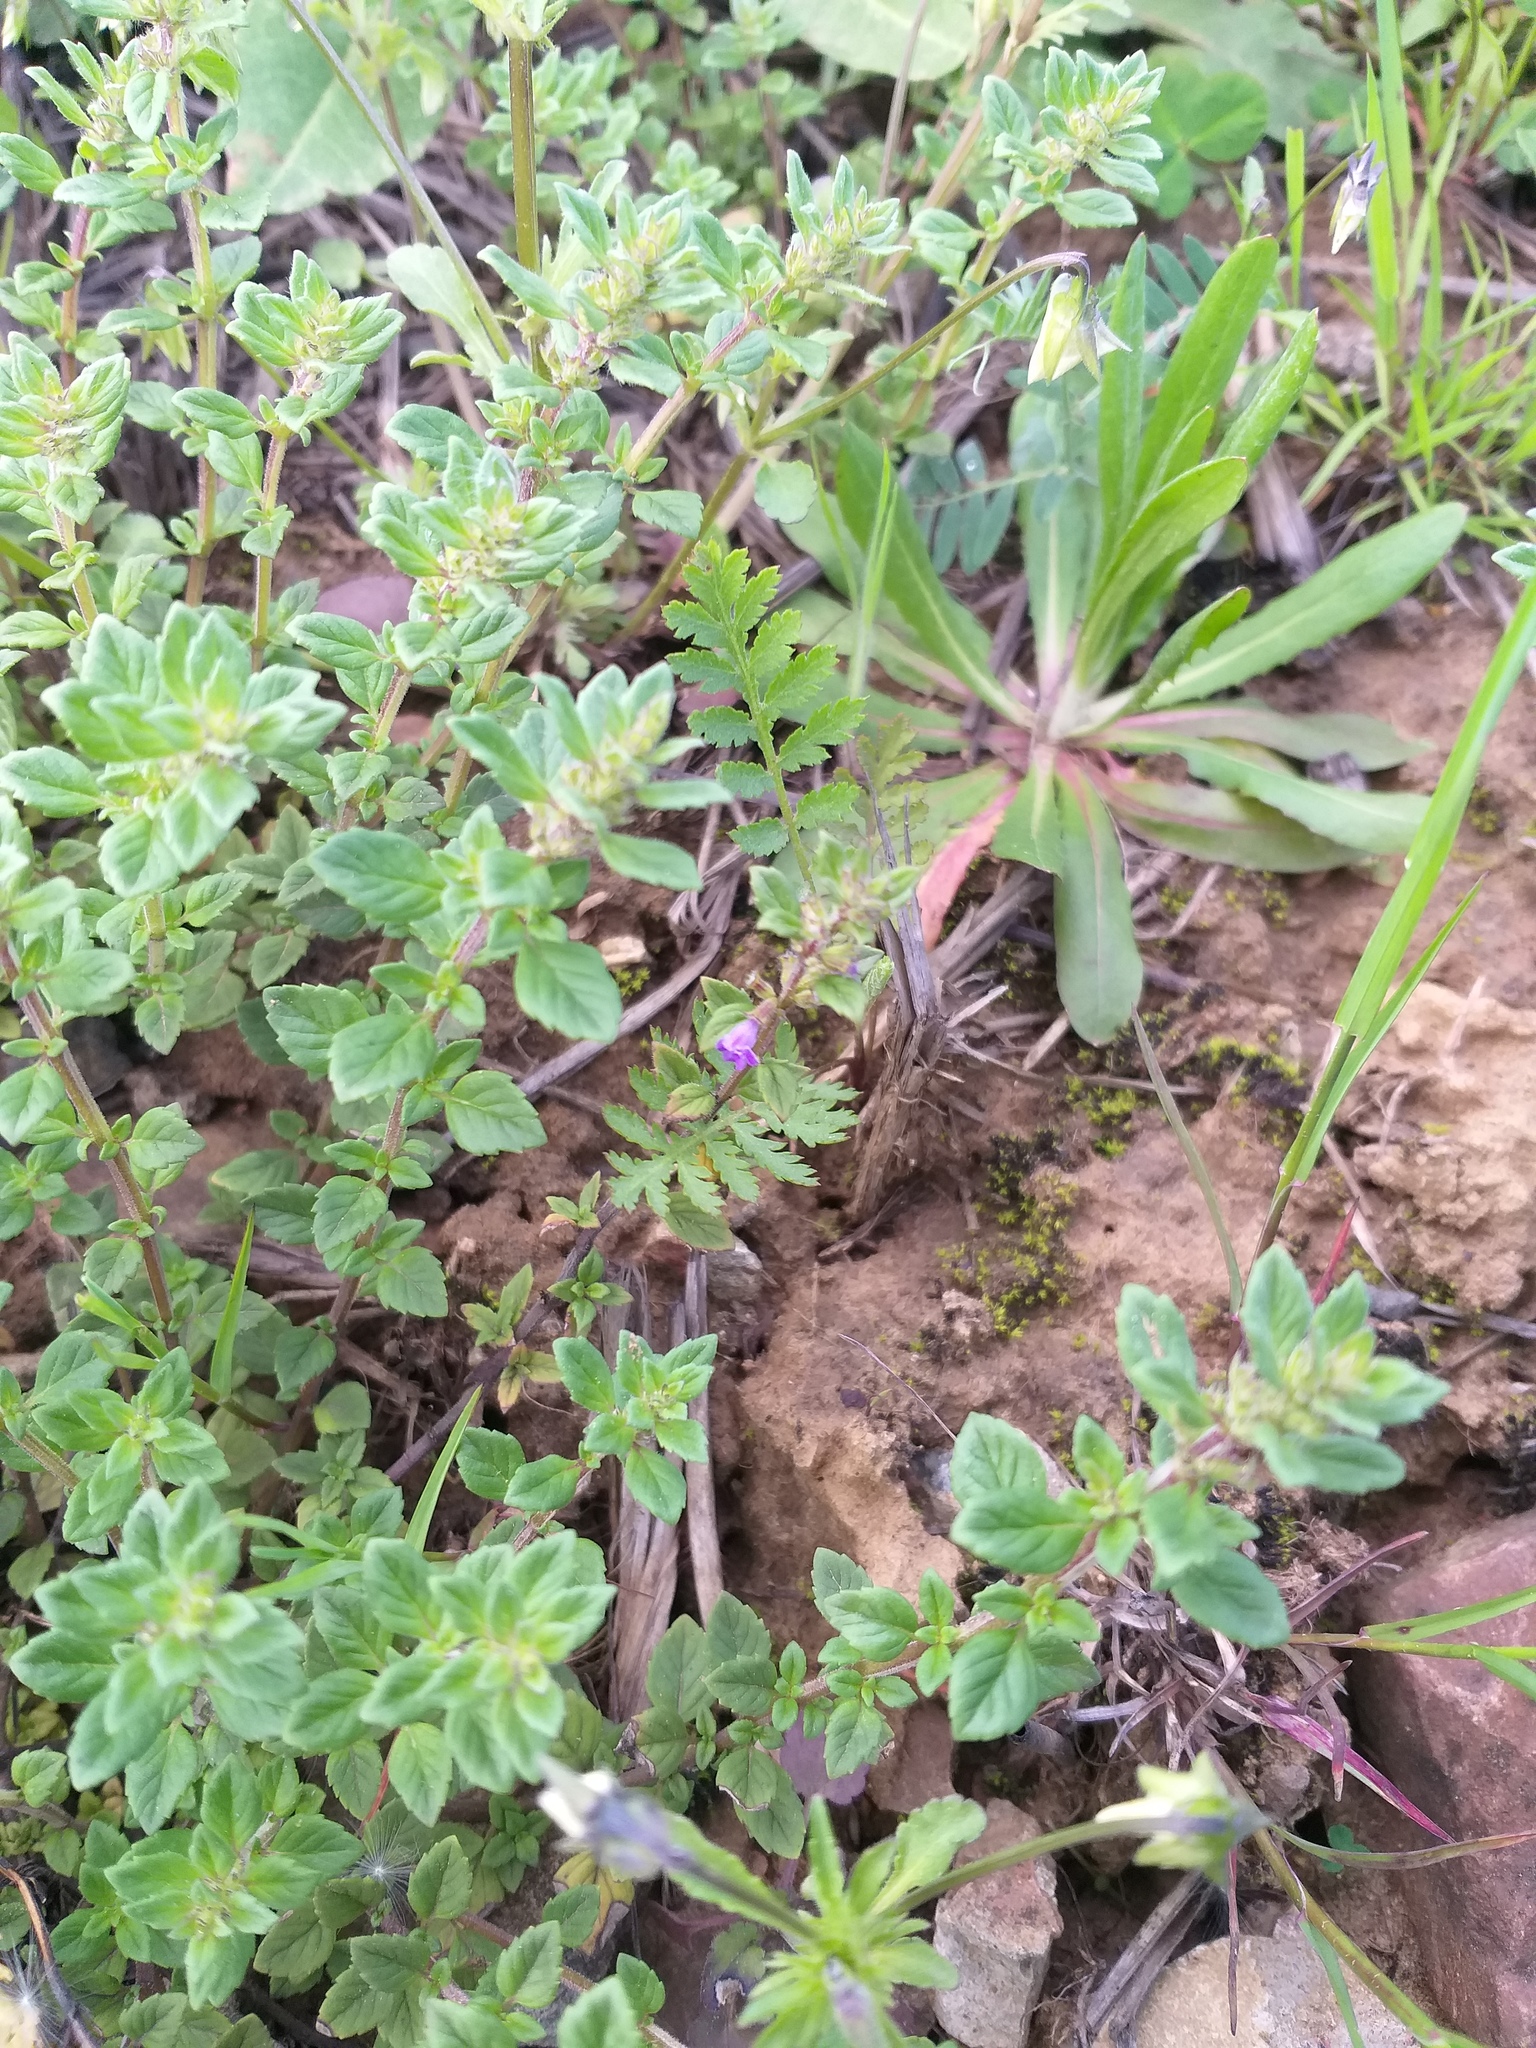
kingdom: Plantae
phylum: Tracheophyta
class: Magnoliopsida
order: Lamiales
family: Lamiaceae
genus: Clinopodium
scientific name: Clinopodium acinos
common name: Basil thyme
